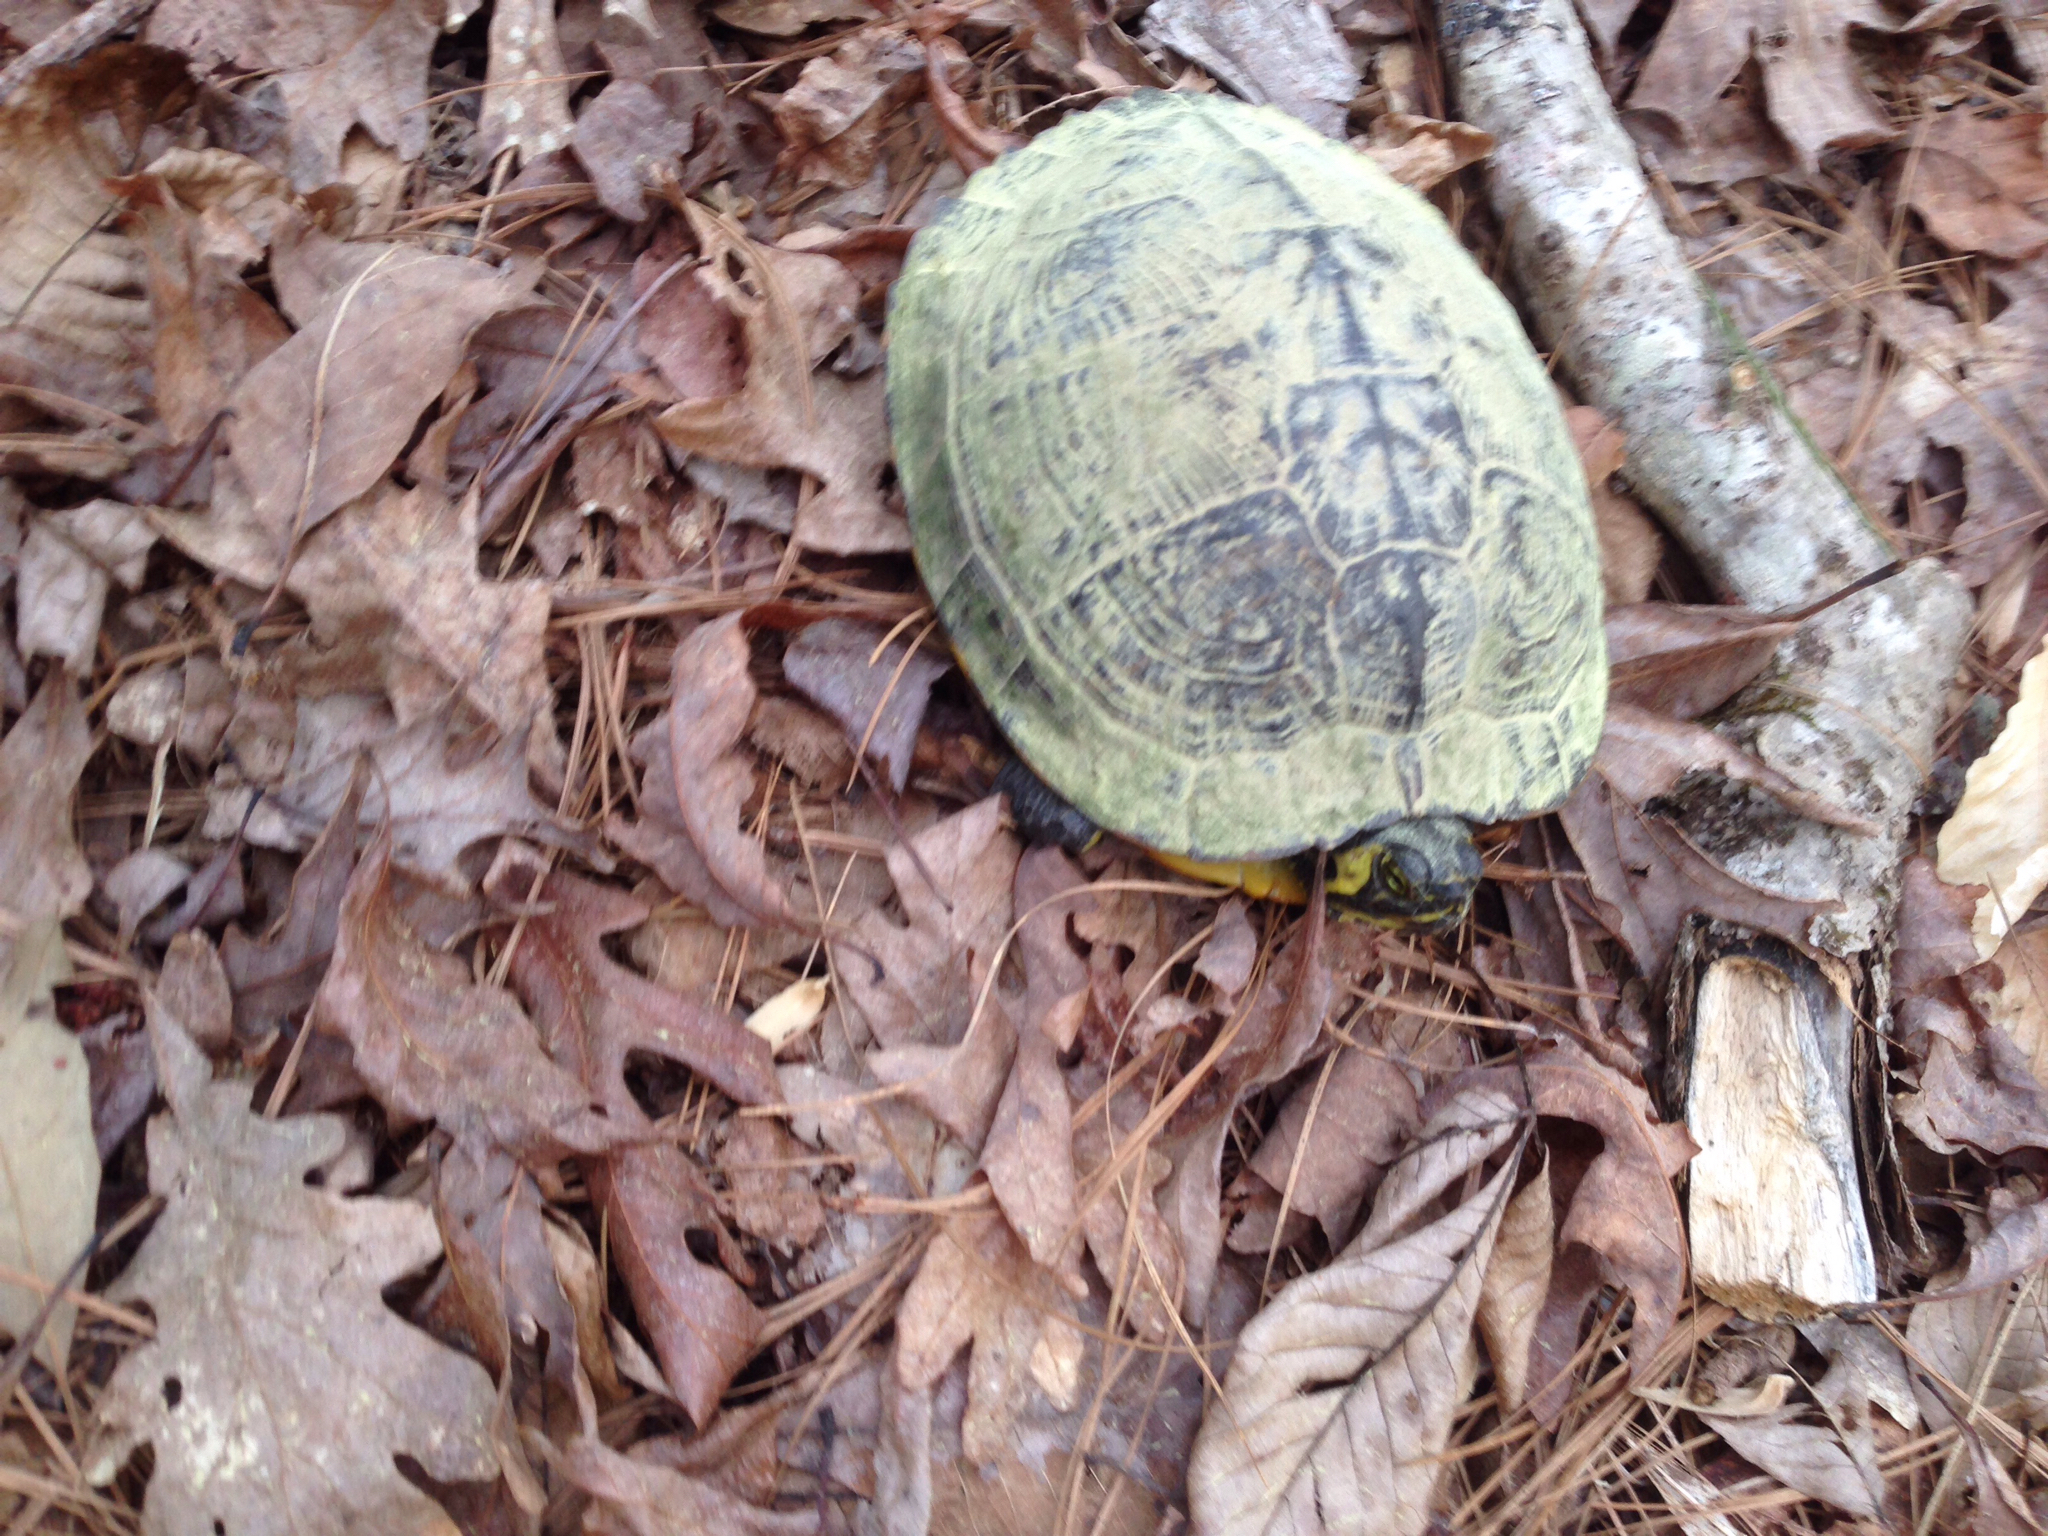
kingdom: Animalia
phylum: Chordata
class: Testudines
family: Emydidae
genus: Trachemys
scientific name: Trachemys scripta
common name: Slider
